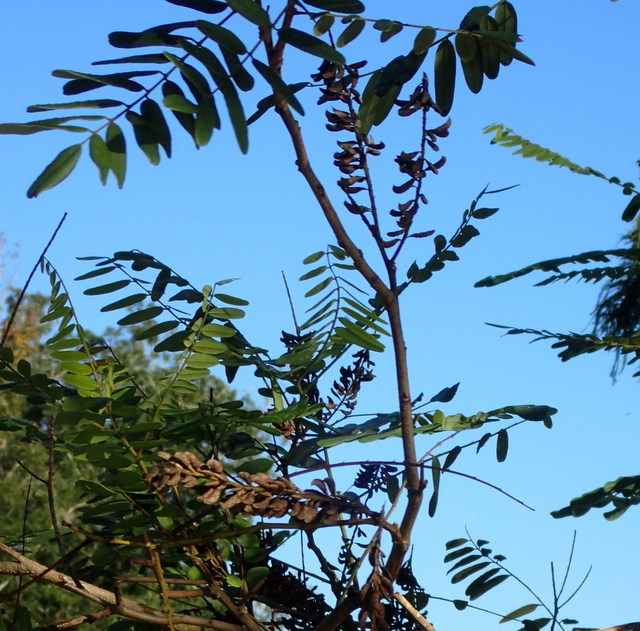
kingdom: Plantae
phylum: Tracheophyta
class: Magnoliopsida
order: Fabales
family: Fabaceae
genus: Amorpha
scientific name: Amorpha fruticosa
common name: False indigo
